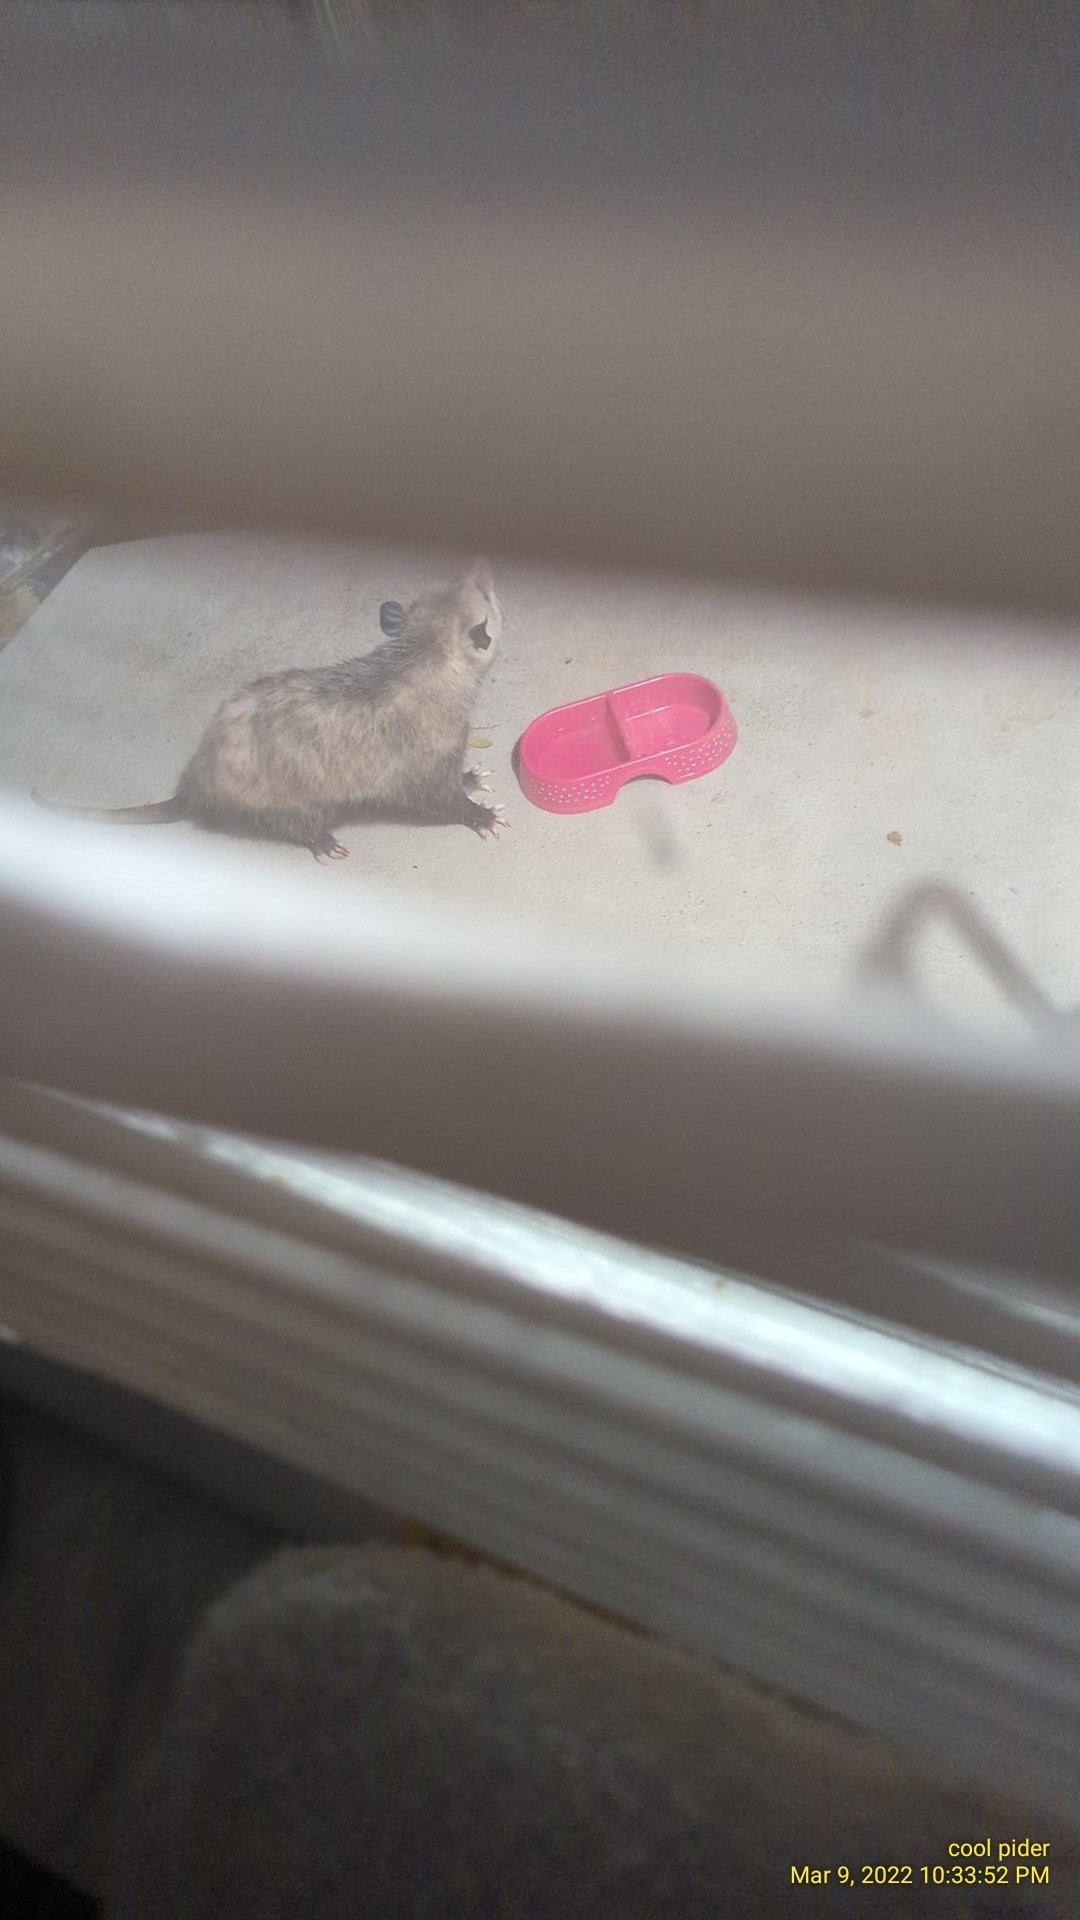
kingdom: Animalia
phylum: Chordata
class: Mammalia
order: Didelphimorphia
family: Didelphidae
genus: Didelphis
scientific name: Didelphis virginiana
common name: Virginia opossum
